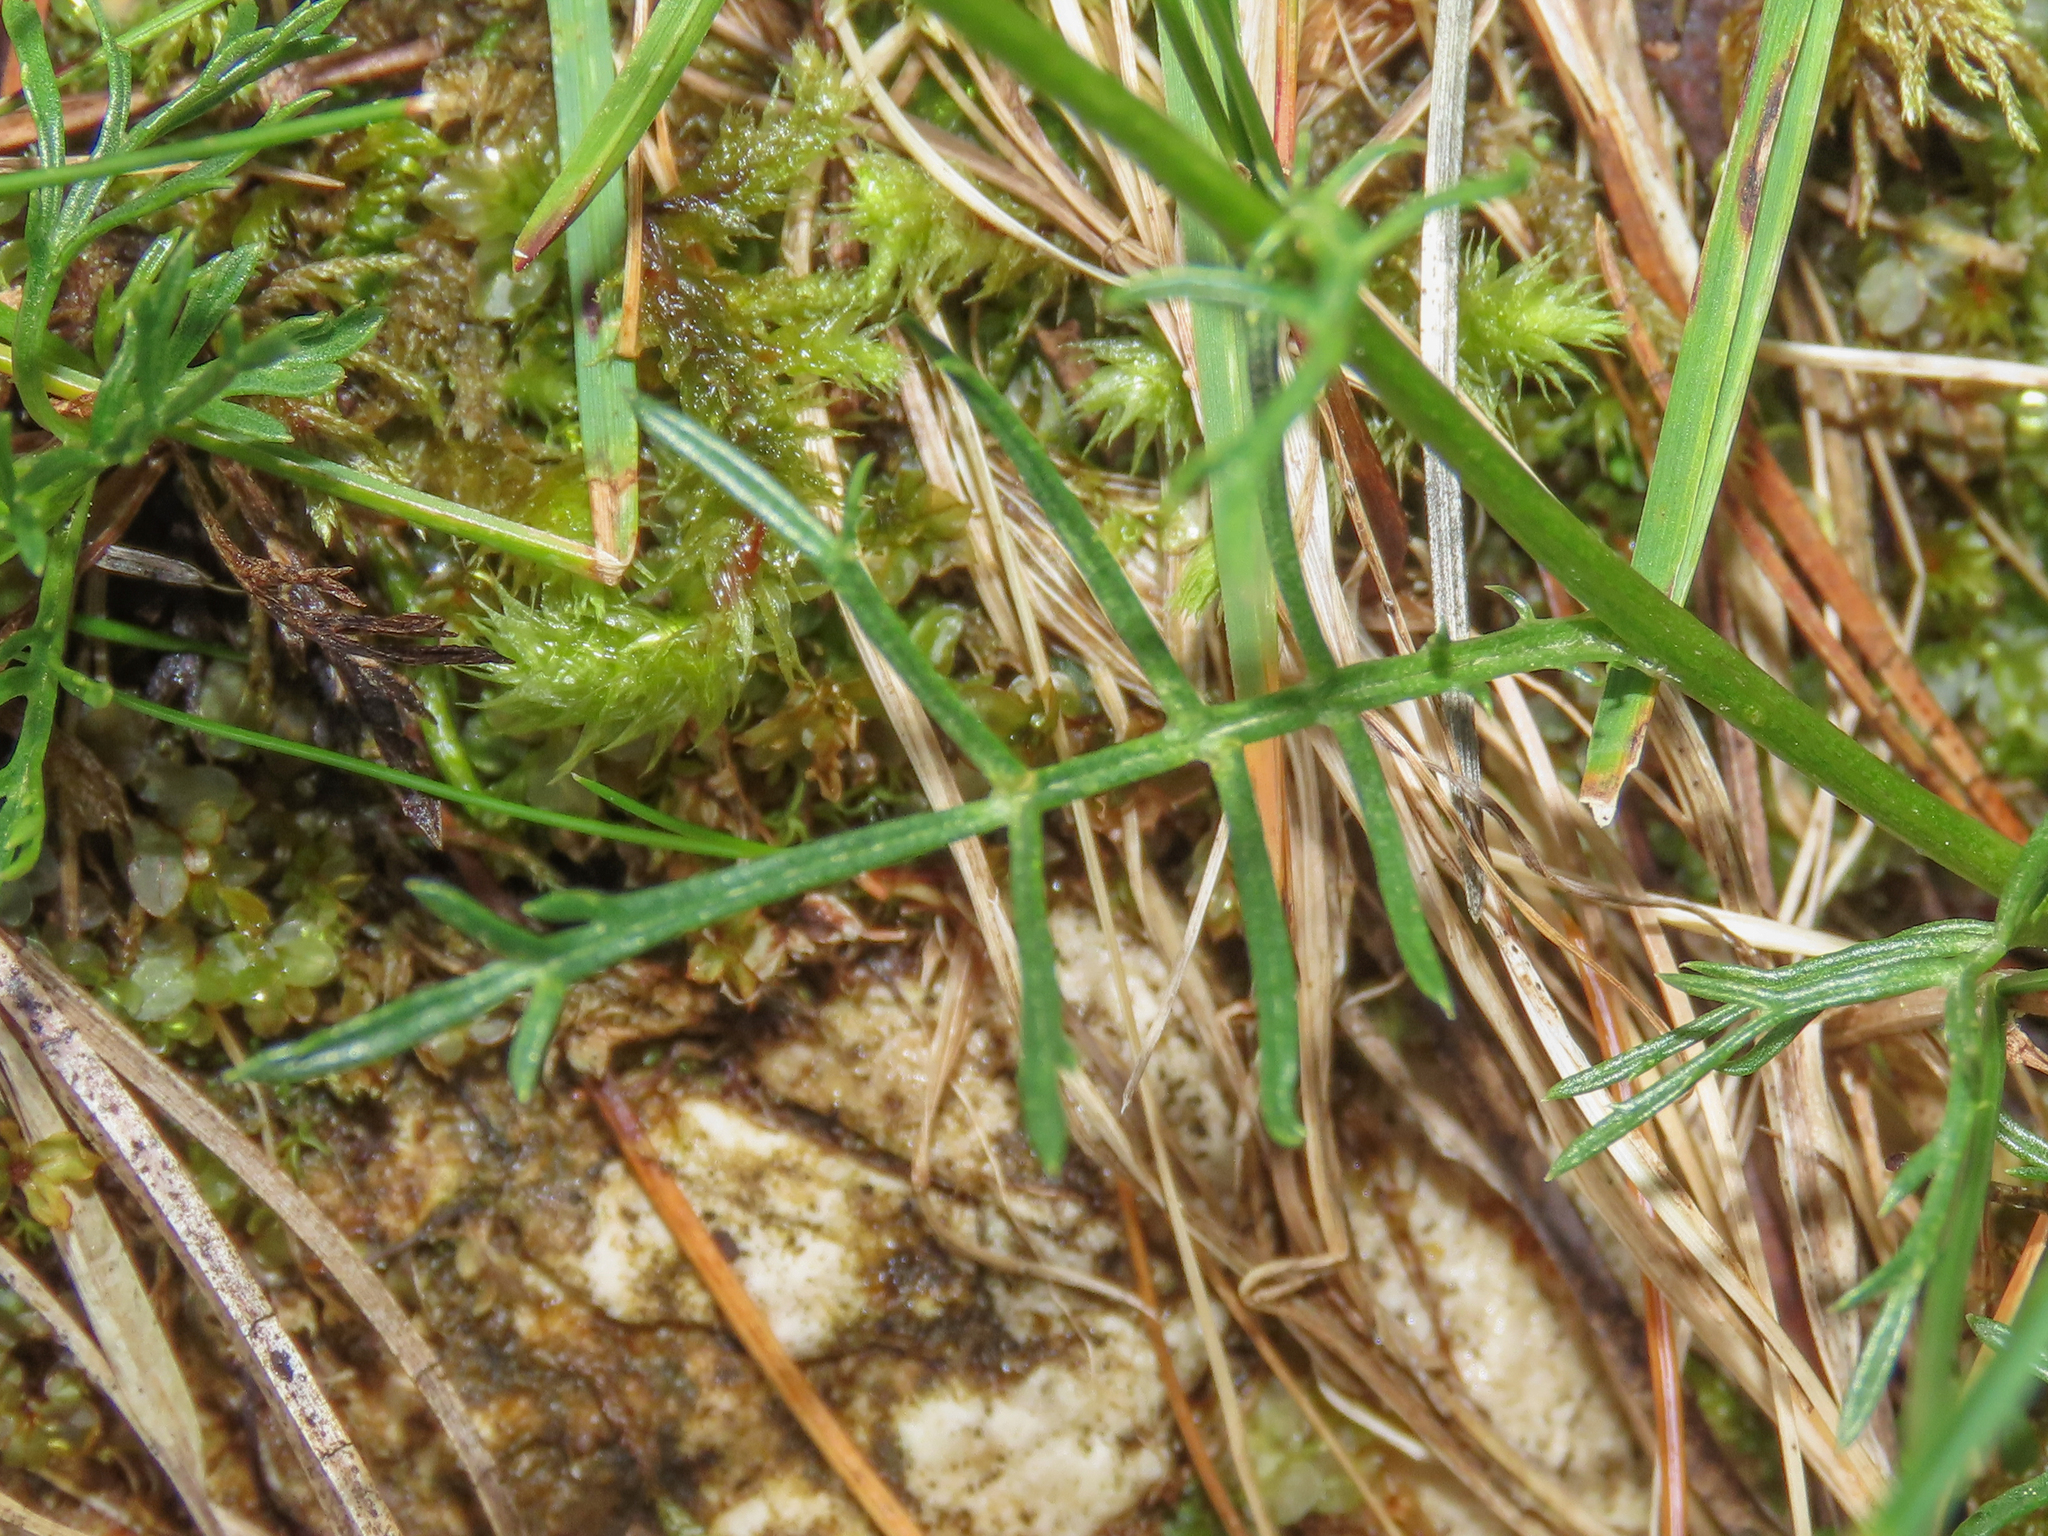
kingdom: Plantae
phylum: Tracheophyta
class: Magnoliopsida
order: Asterales
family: Asteraceae
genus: Jacobaea
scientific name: Jacobaea abrotanifolia
